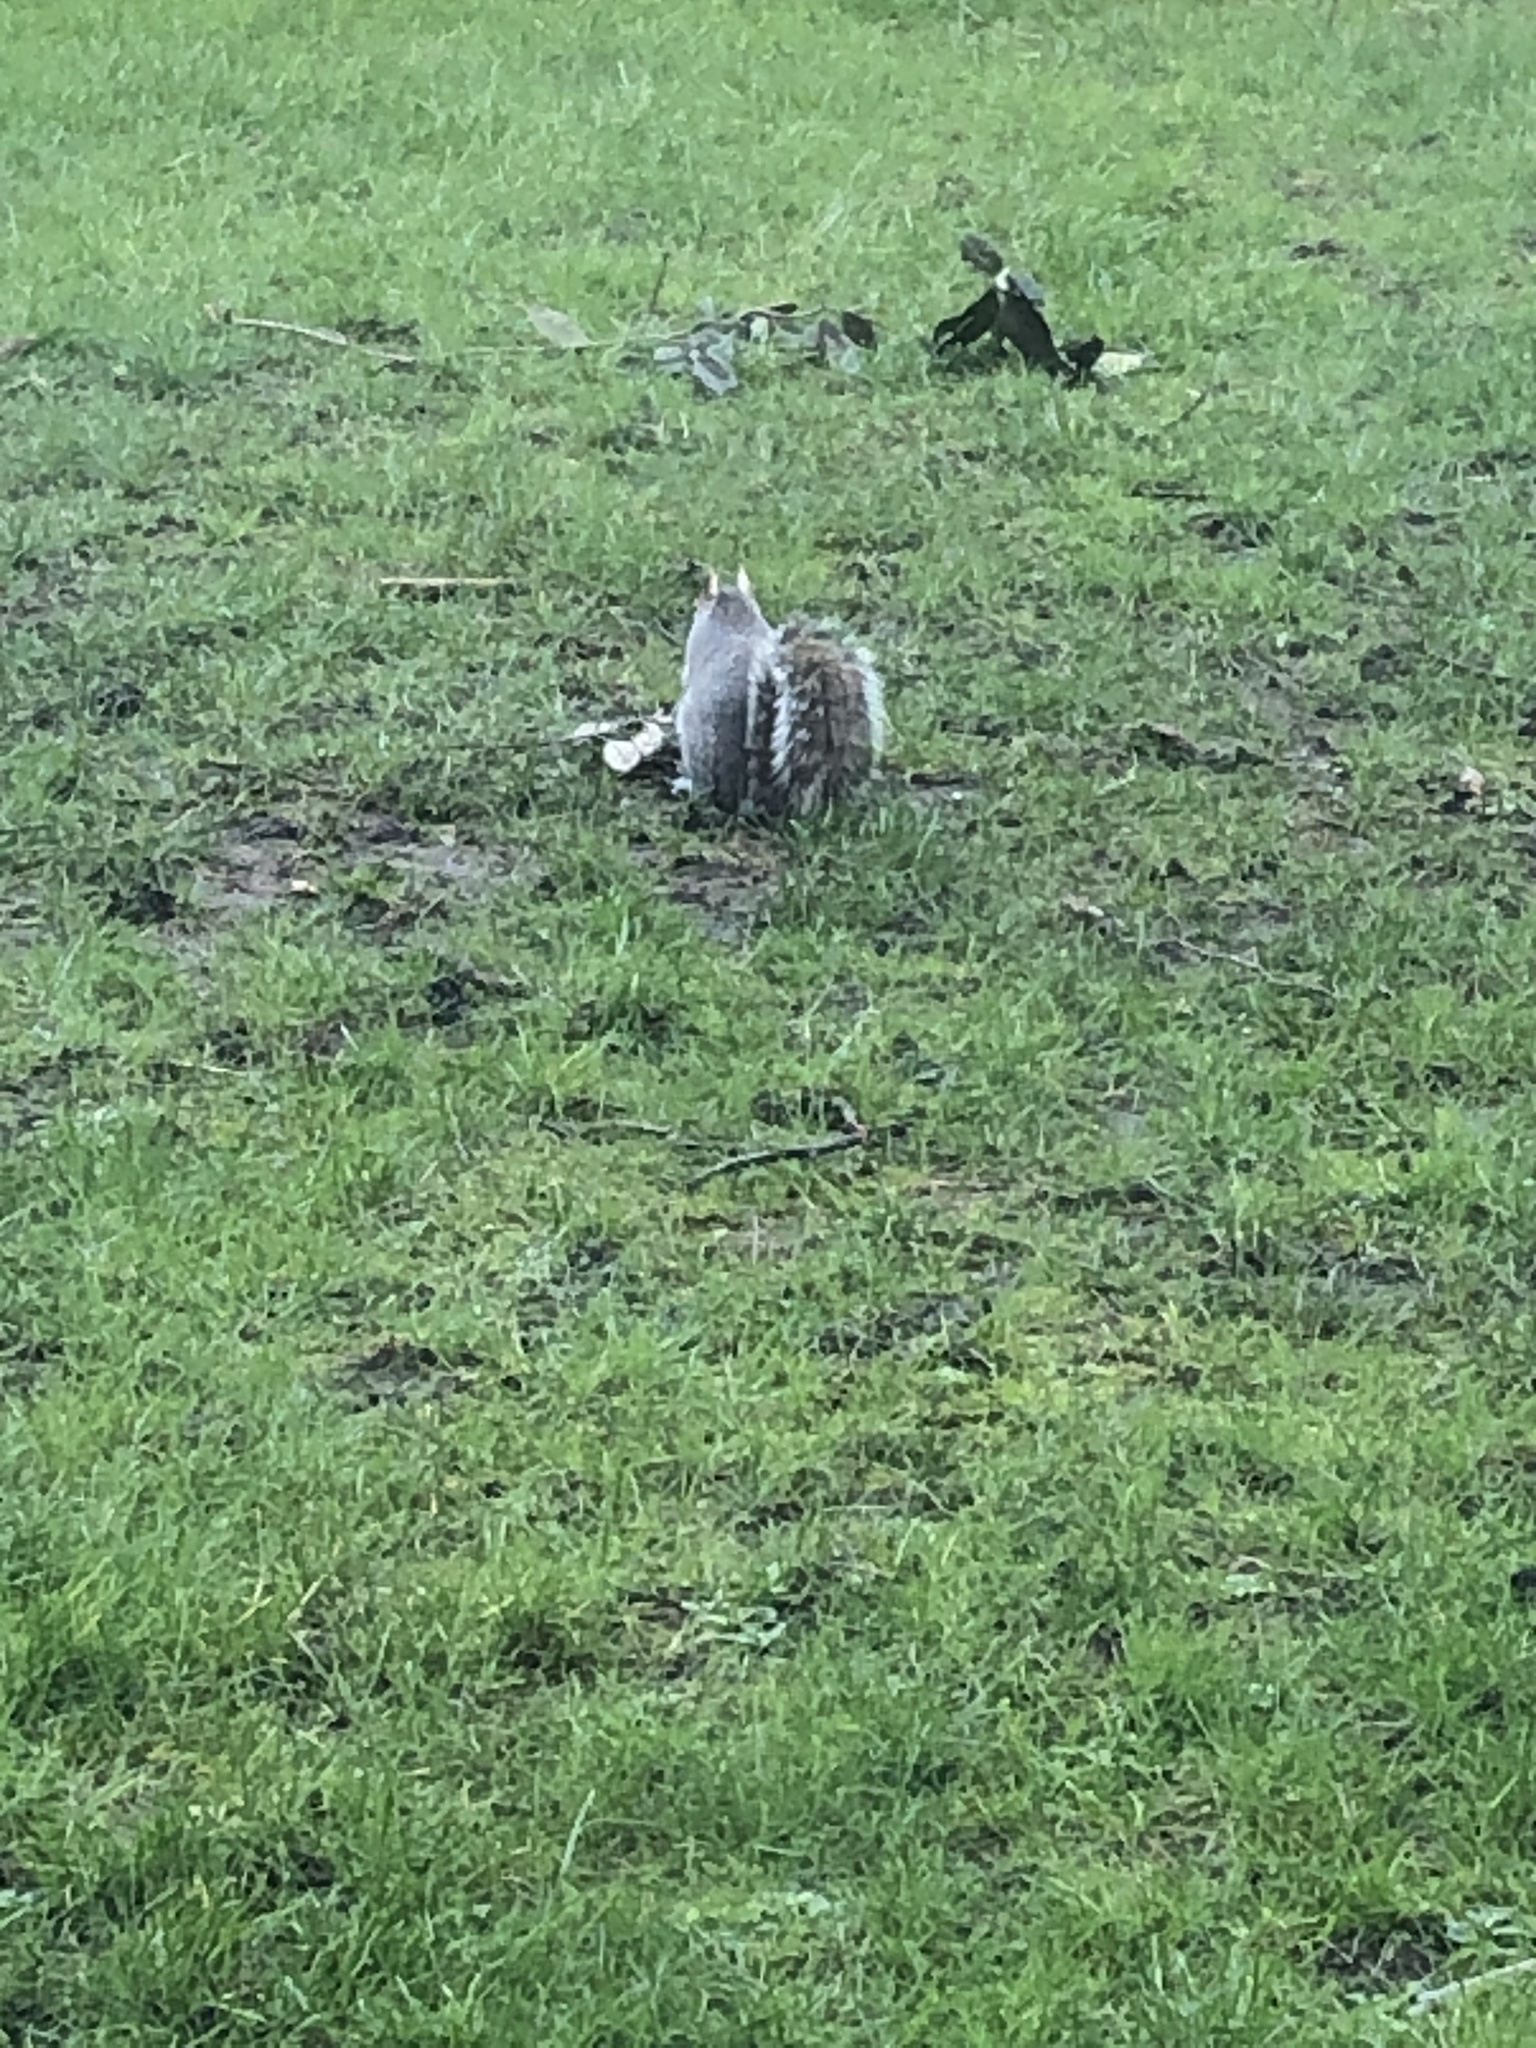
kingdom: Animalia
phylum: Chordata
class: Mammalia
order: Rodentia
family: Sciuridae
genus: Sciurus
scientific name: Sciurus carolinensis
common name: Eastern gray squirrel
